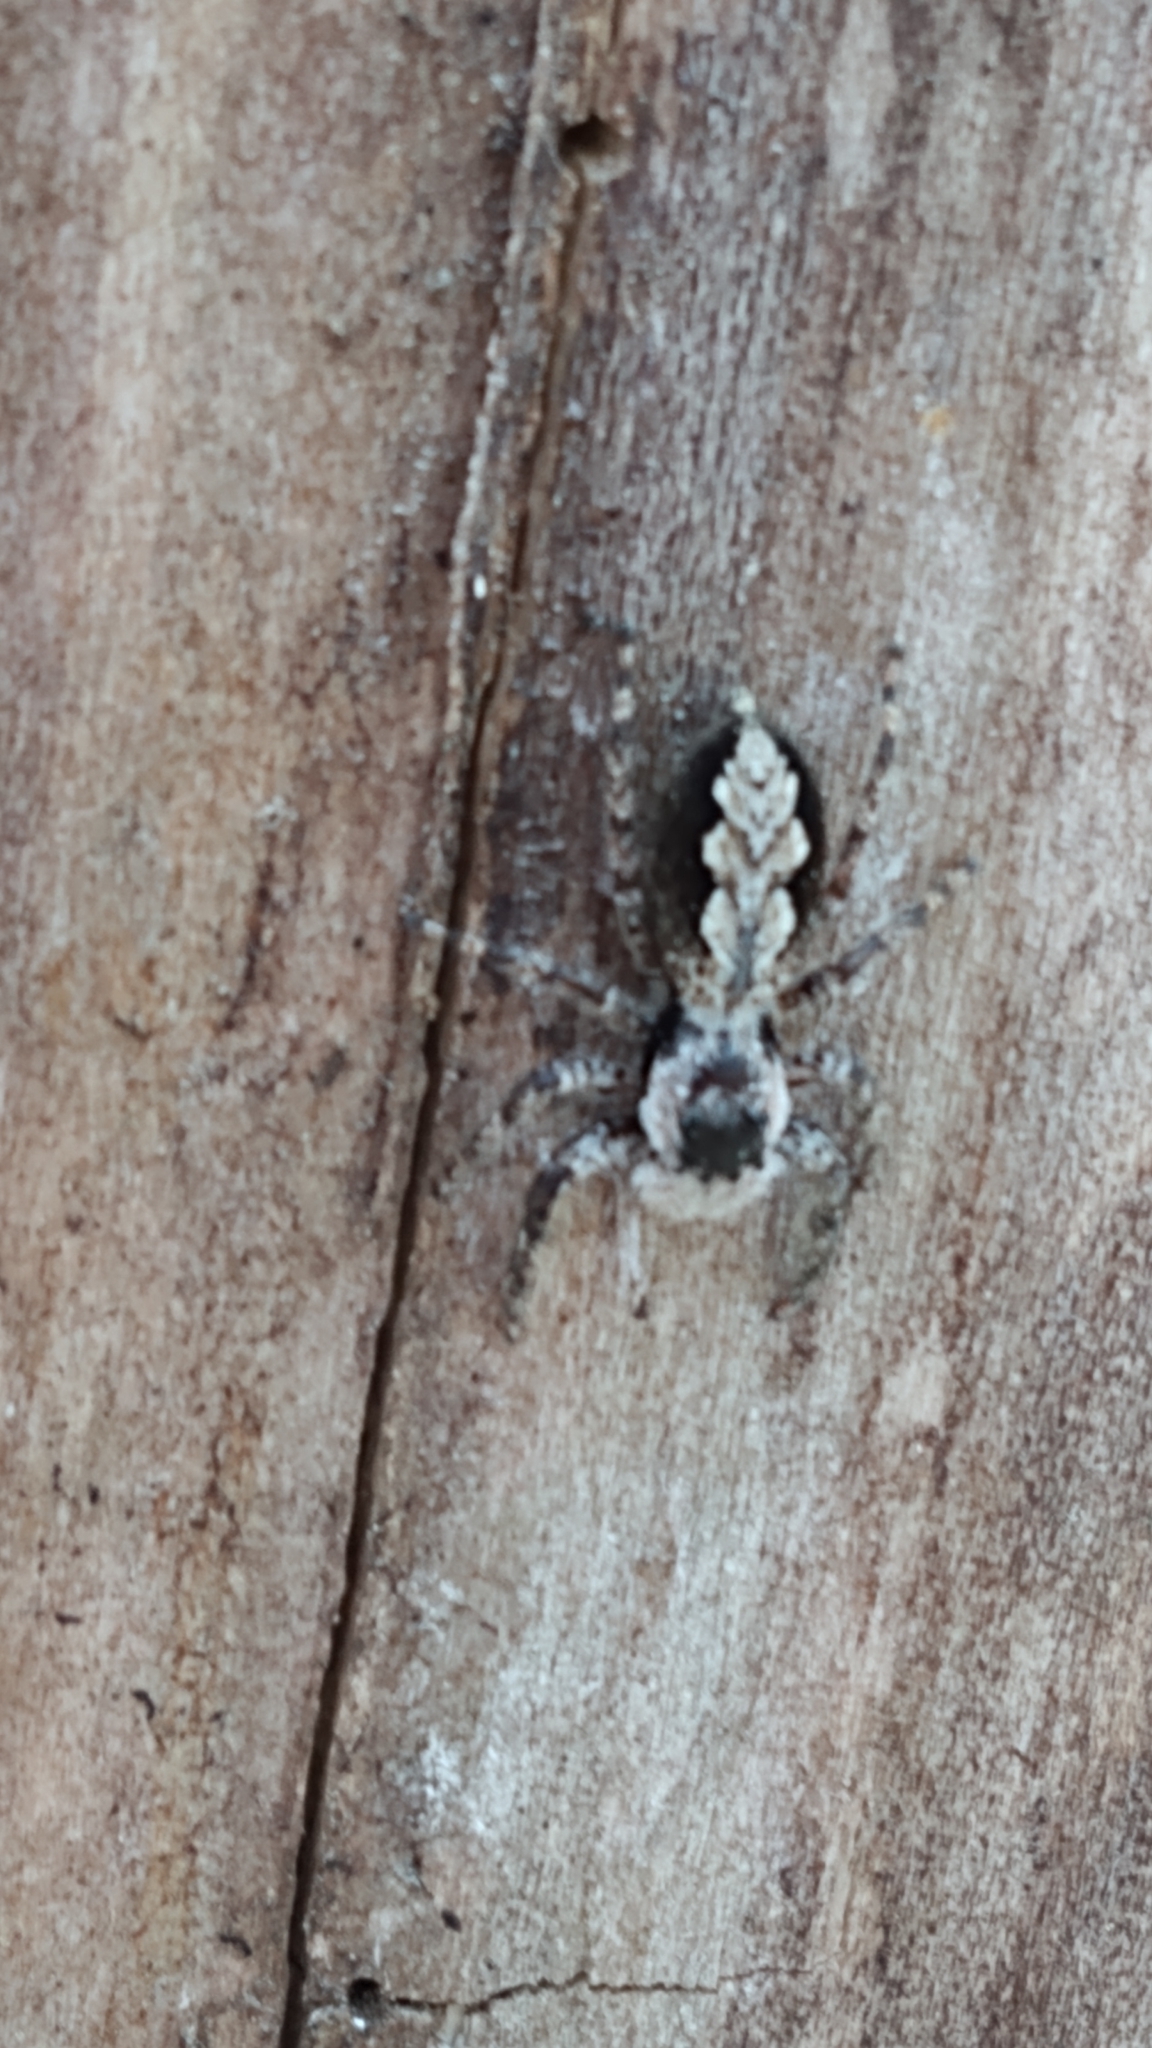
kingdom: Animalia
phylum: Arthropoda
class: Arachnida
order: Araneae
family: Salticidae
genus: Platycryptus
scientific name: Platycryptus undatus
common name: Tan jumping spider
